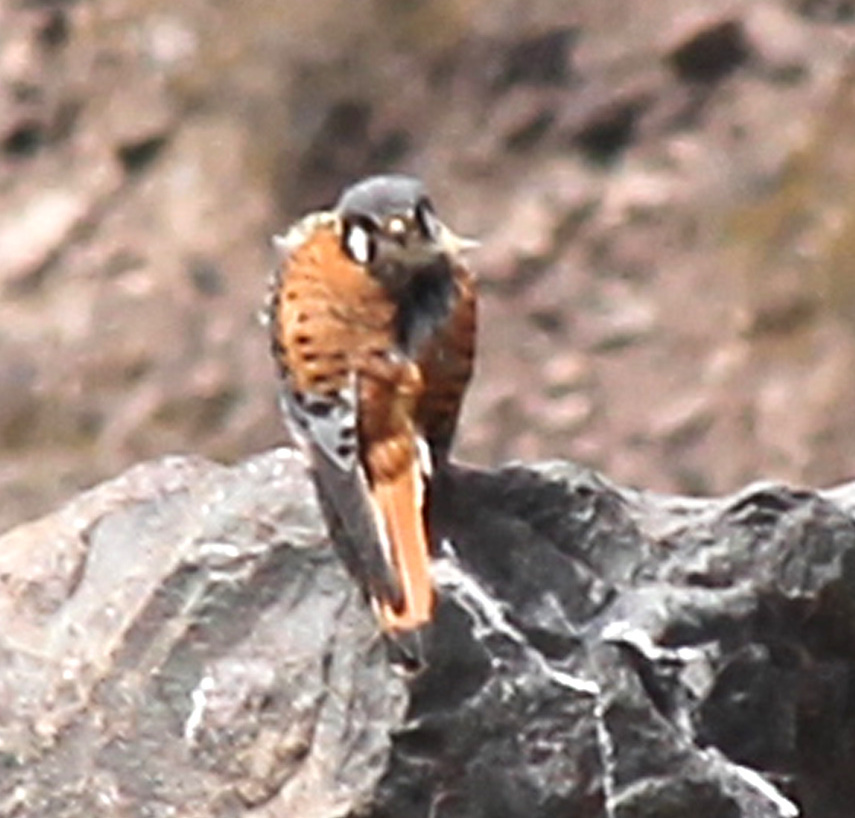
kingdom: Animalia
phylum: Chordata
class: Aves
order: Falconiformes
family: Falconidae
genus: Falco
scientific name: Falco sparverius
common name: American kestrel
